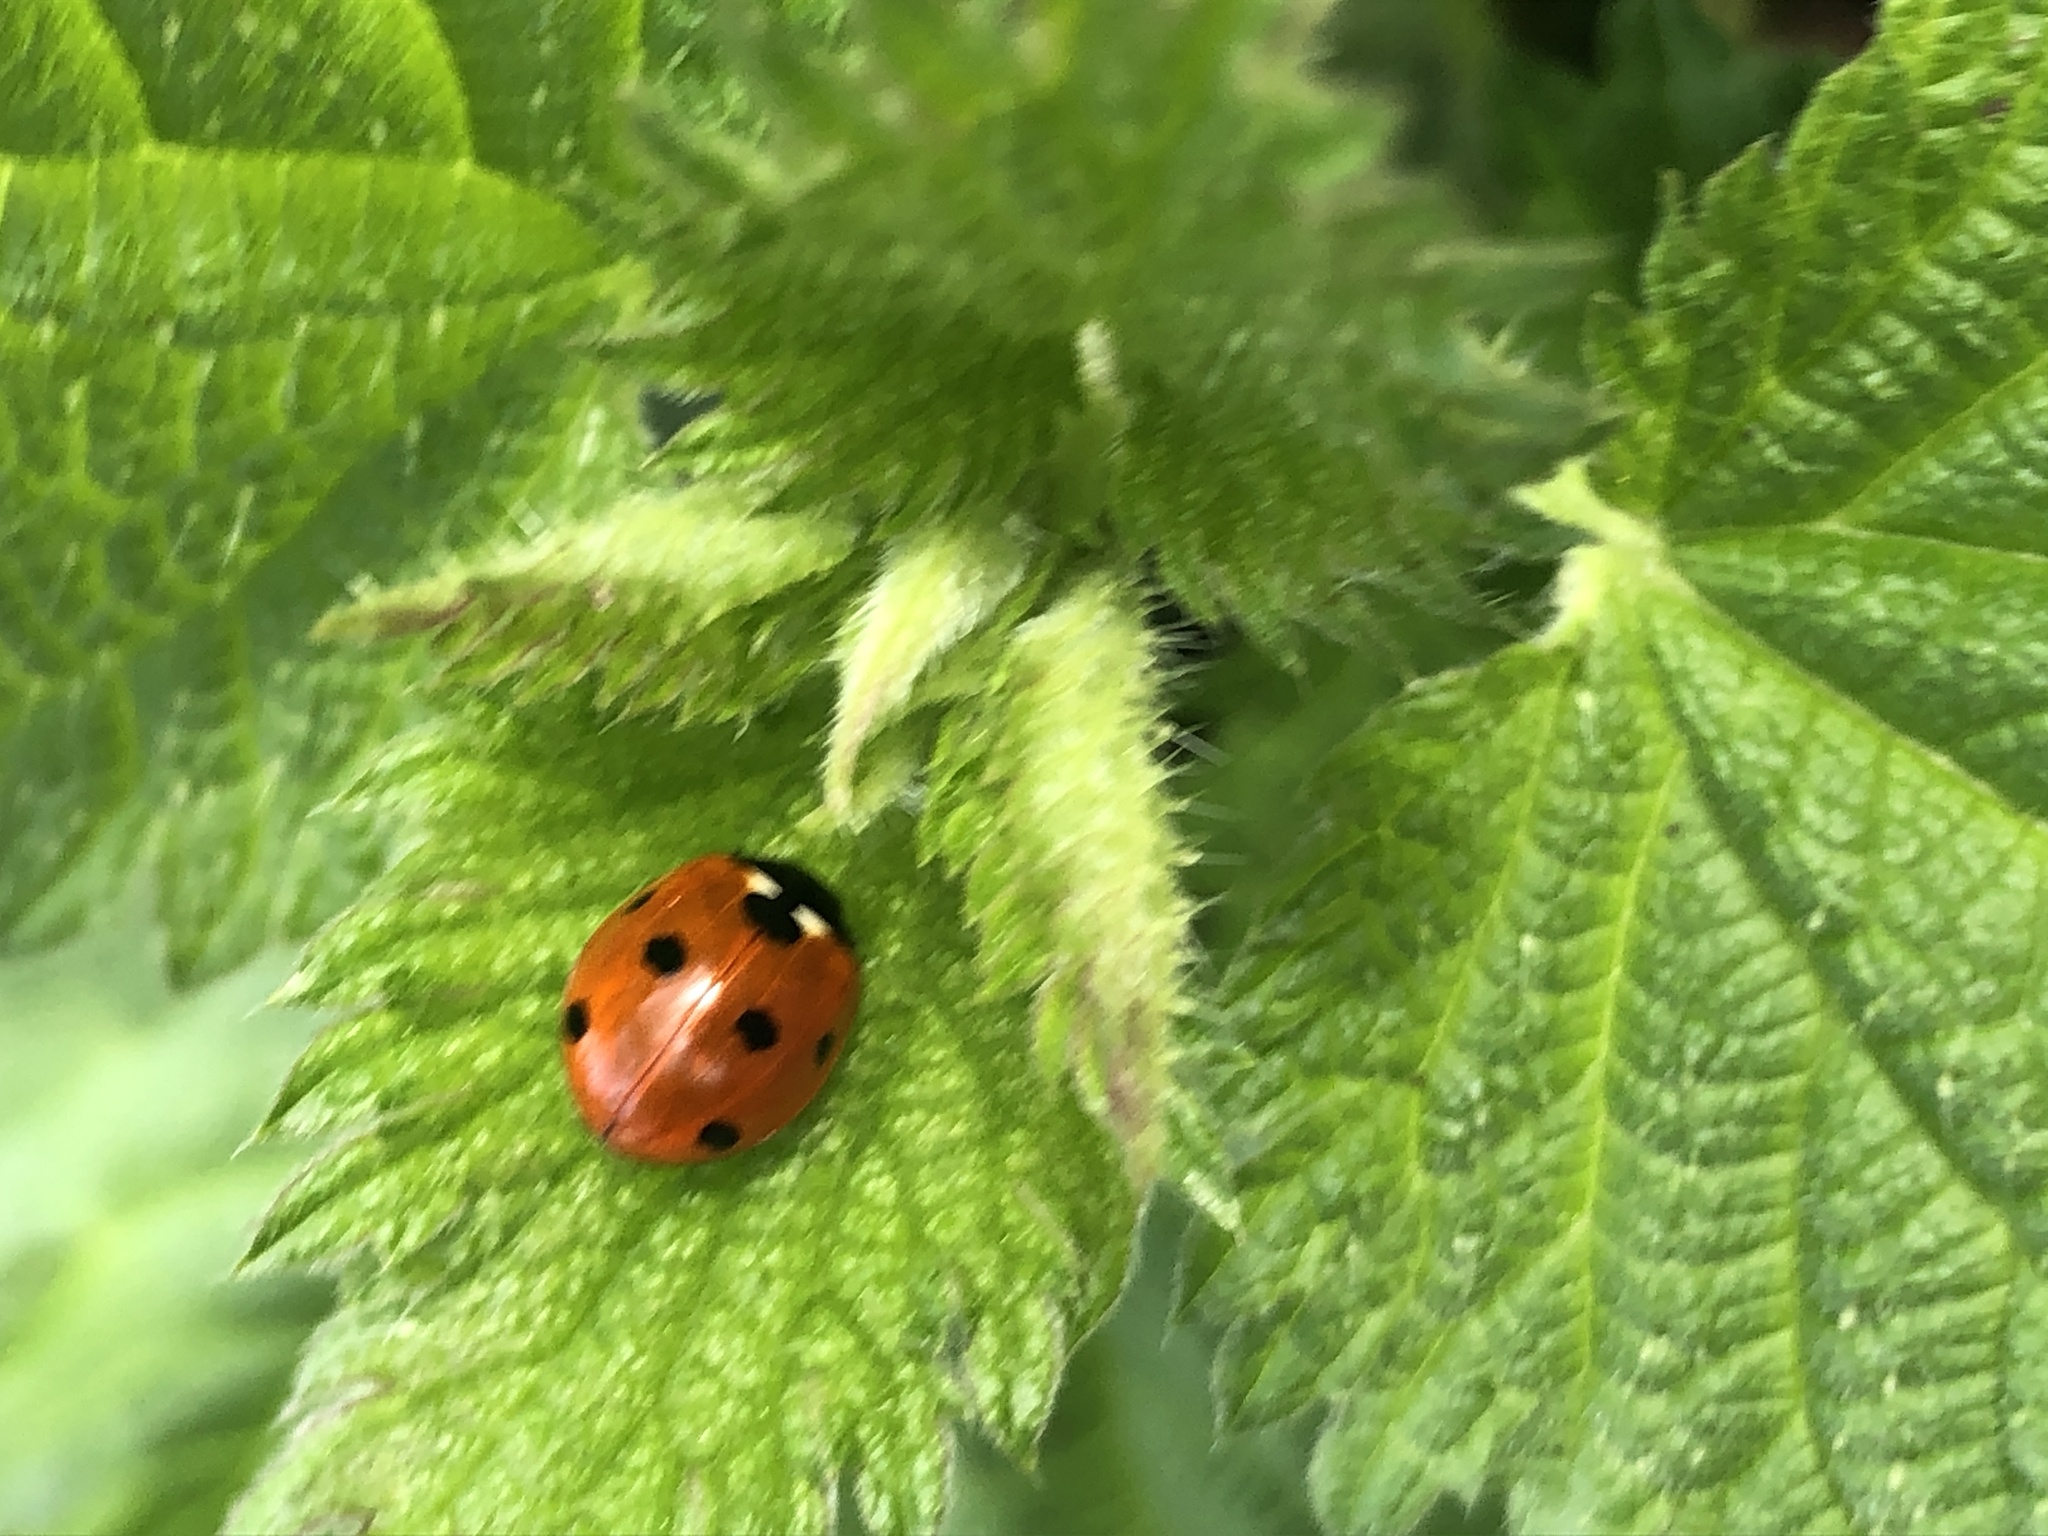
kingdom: Animalia
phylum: Arthropoda
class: Insecta
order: Coleoptera
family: Coccinellidae
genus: Coccinella
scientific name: Coccinella septempunctata
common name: Sevenspotted lady beetle
